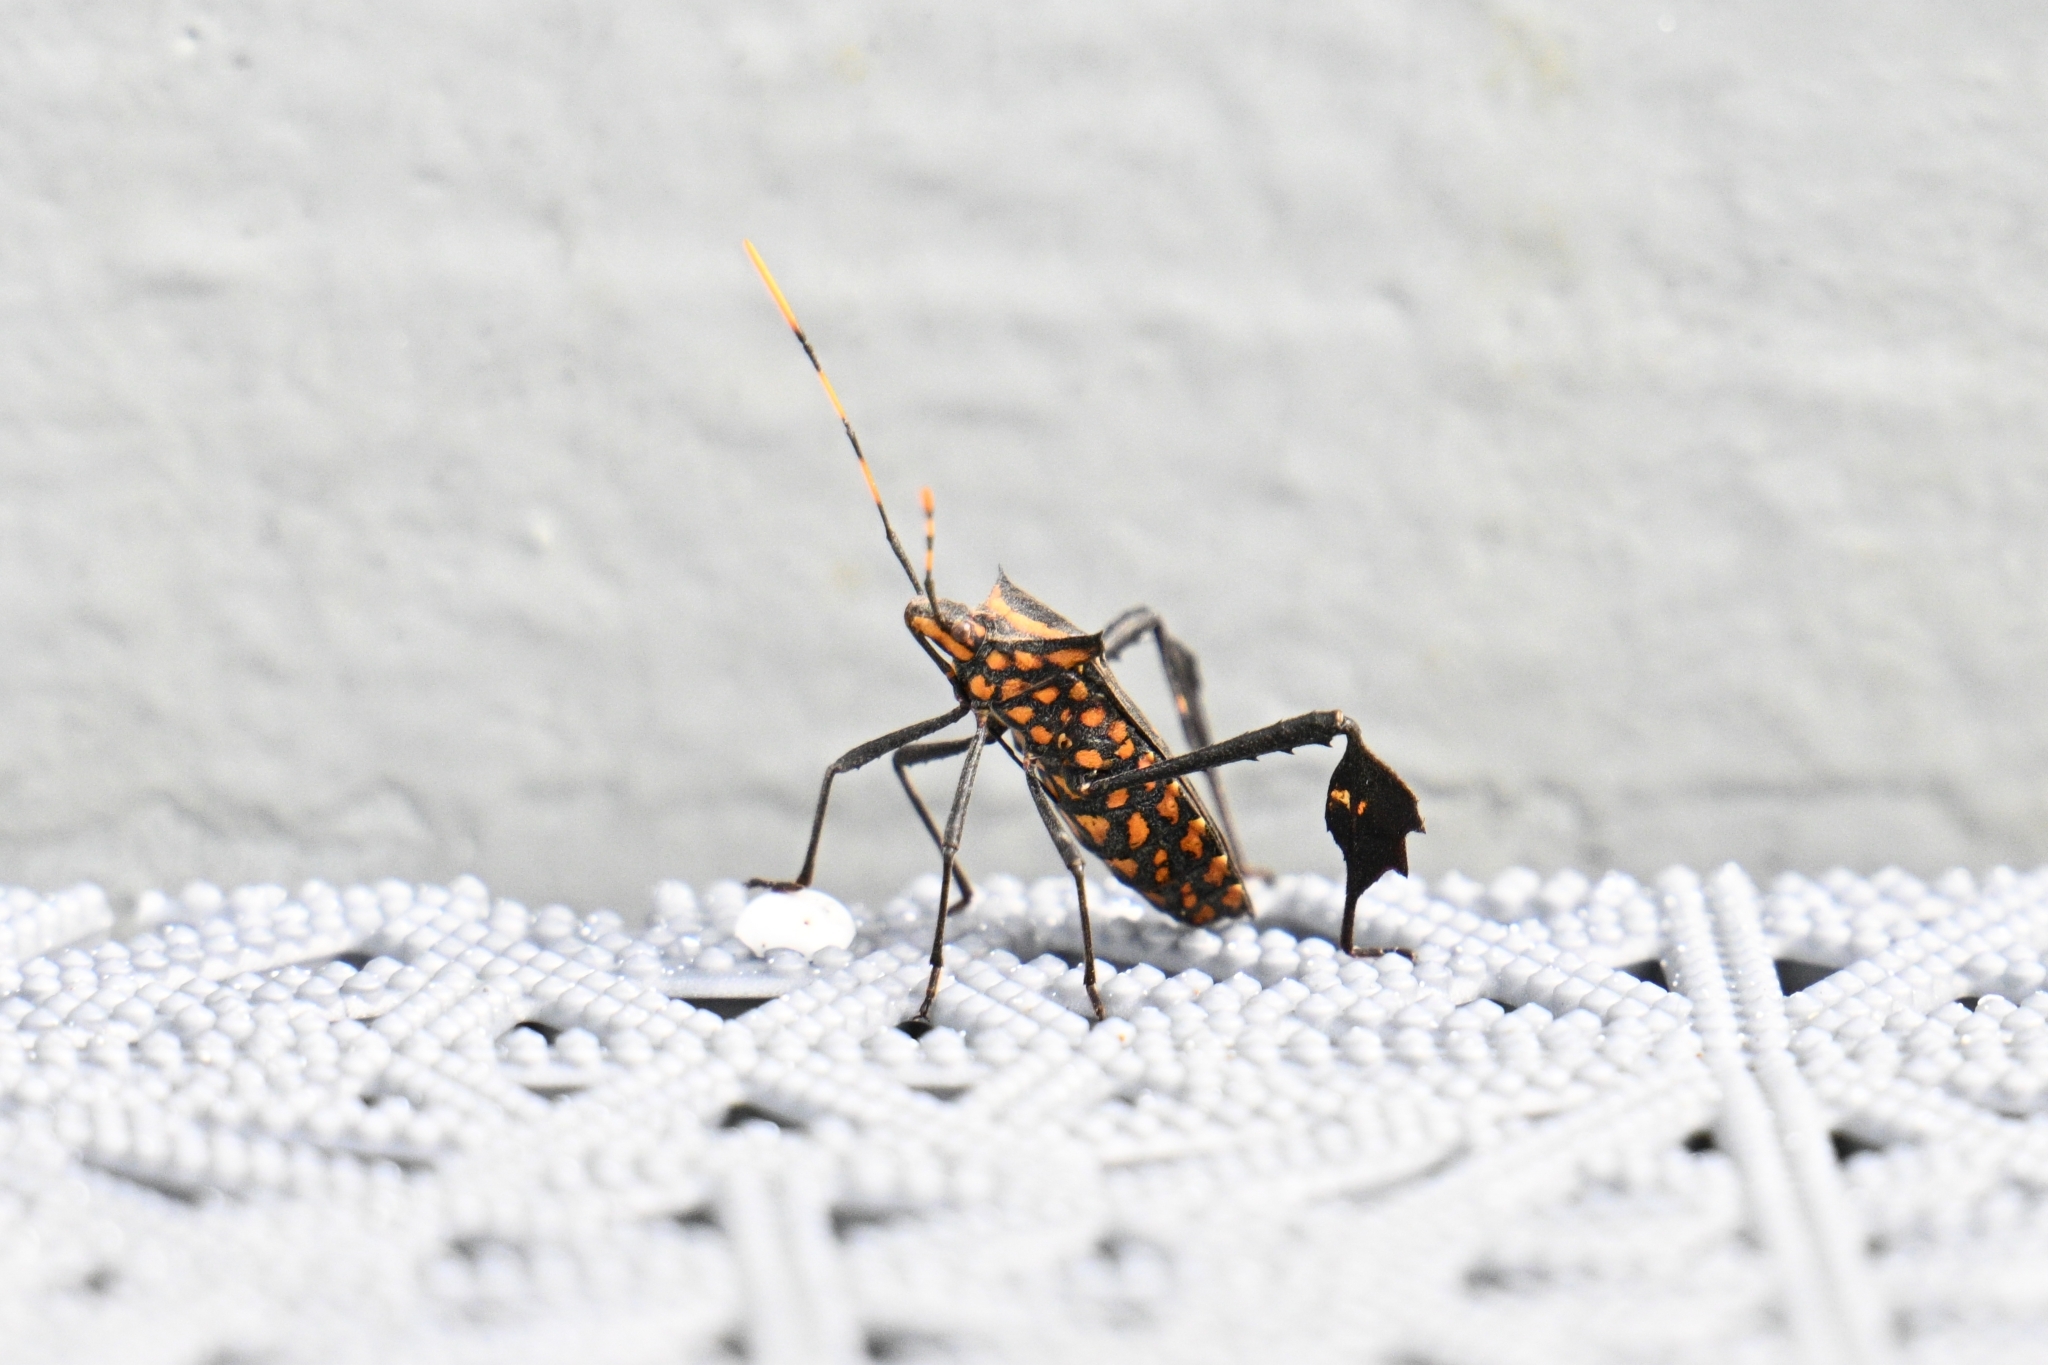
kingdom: Animalia
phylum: Arthropoda
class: Insecta
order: Hemiptera
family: Coreidae
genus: Leptoglossus
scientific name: Leptoglossus gonagra
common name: Citron bug
